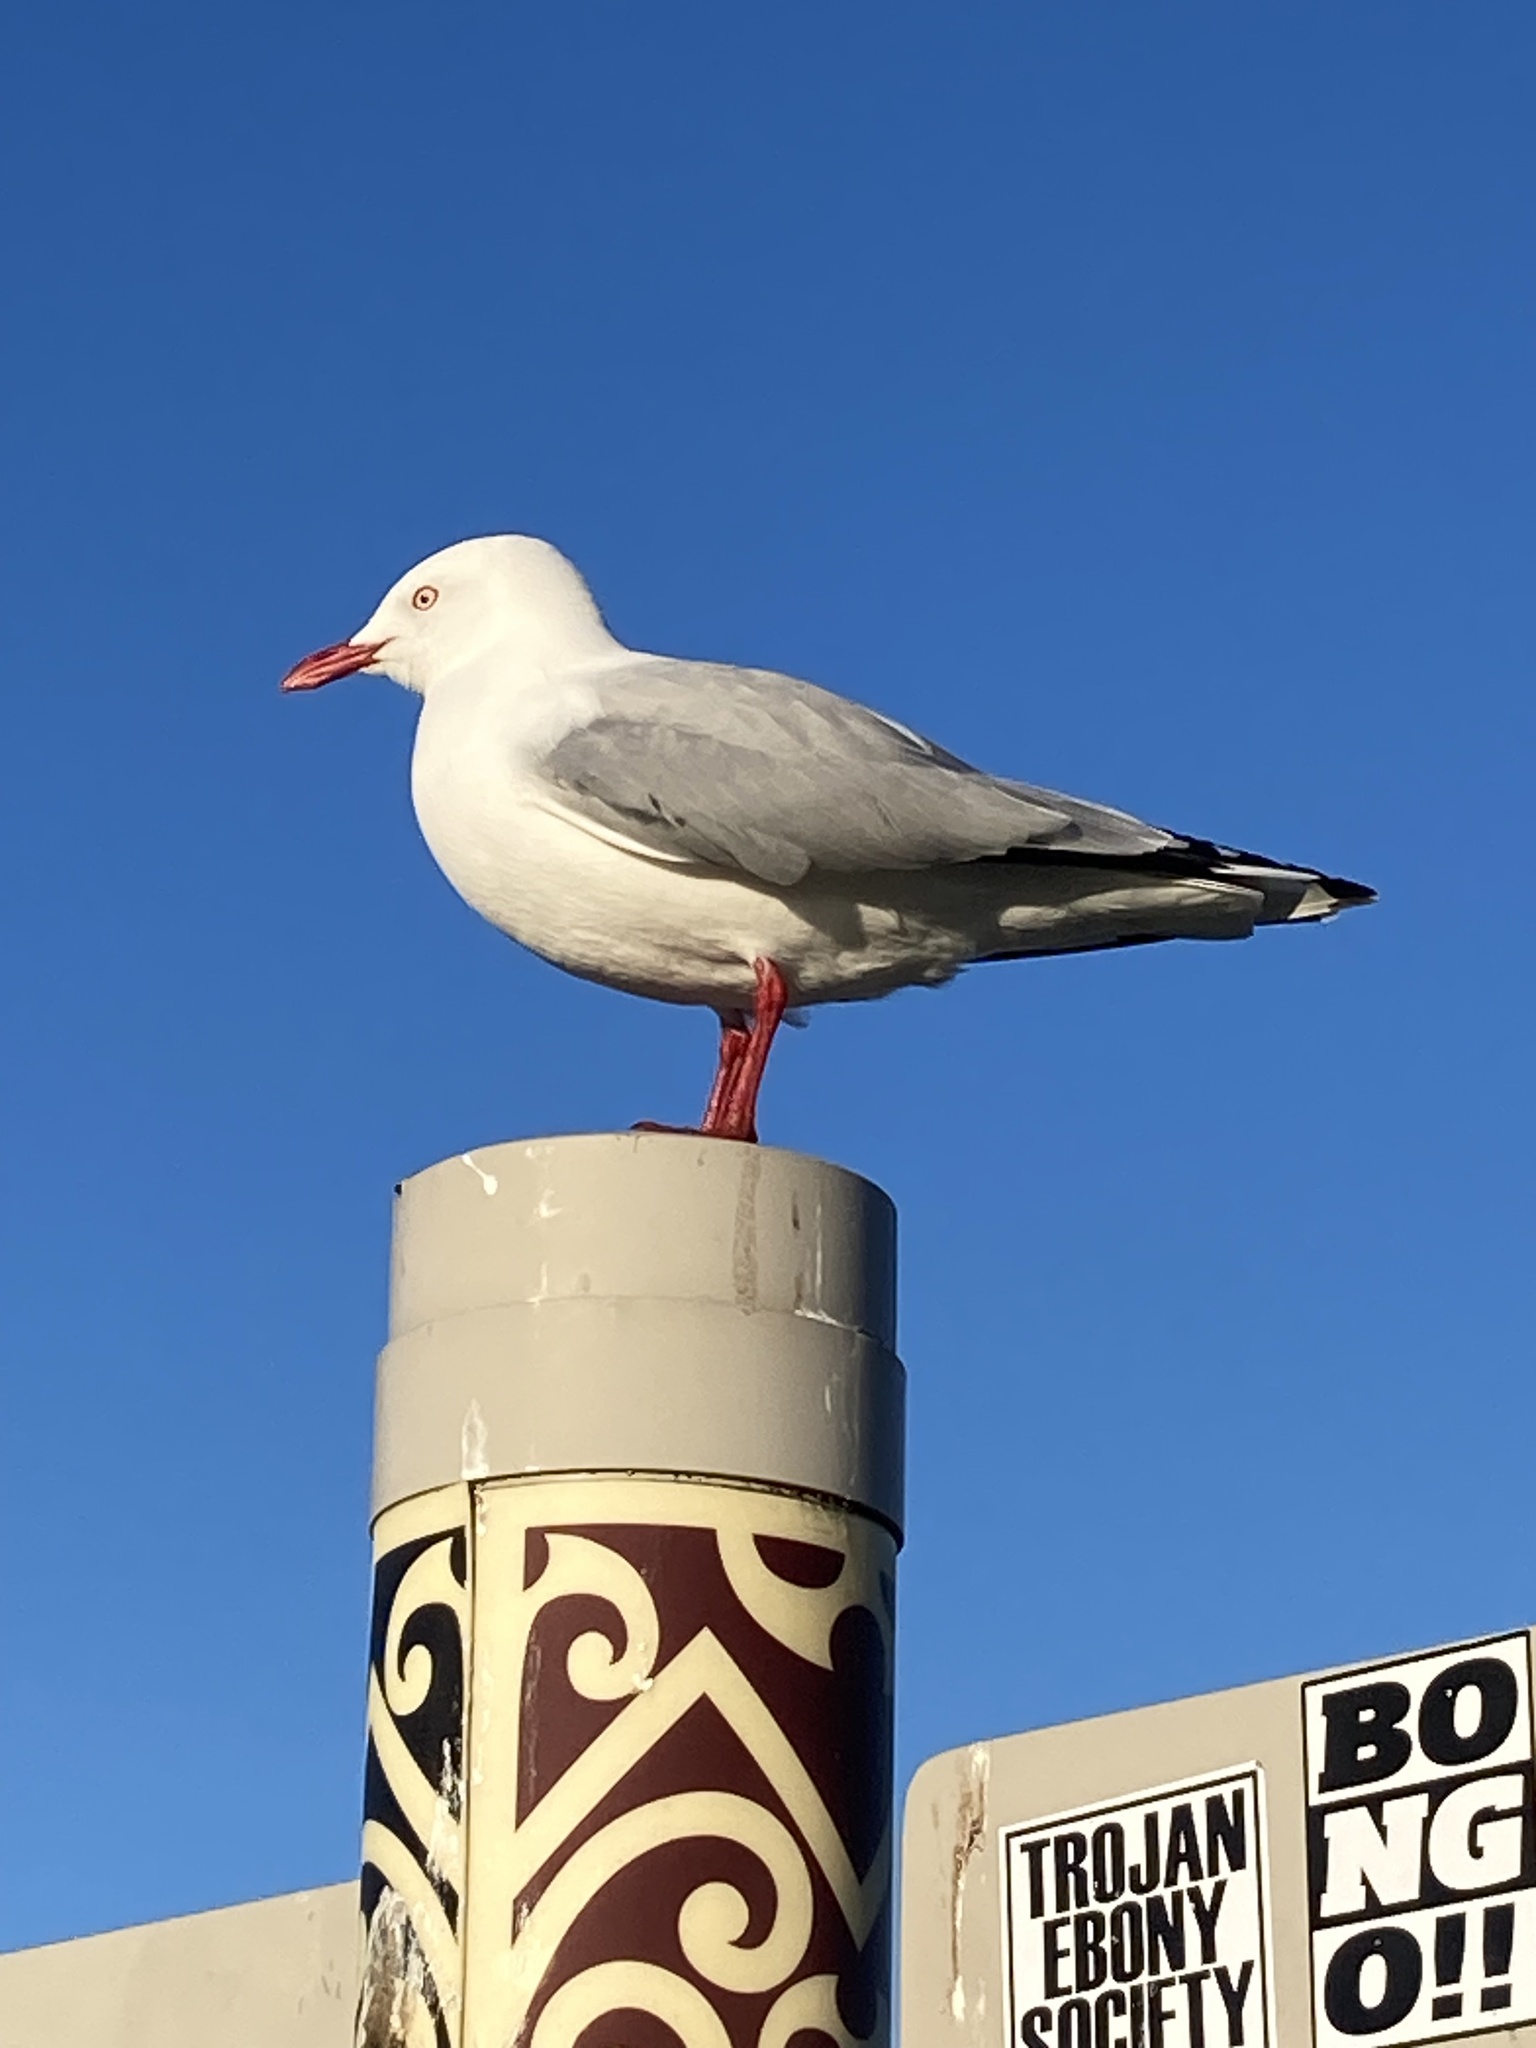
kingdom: Animalia
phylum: Chordata
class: Aves
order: Charadriiformes
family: Laridae
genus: Chroicocephalus
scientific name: Chroicocephalus novaehollandiae
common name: Silver gull
